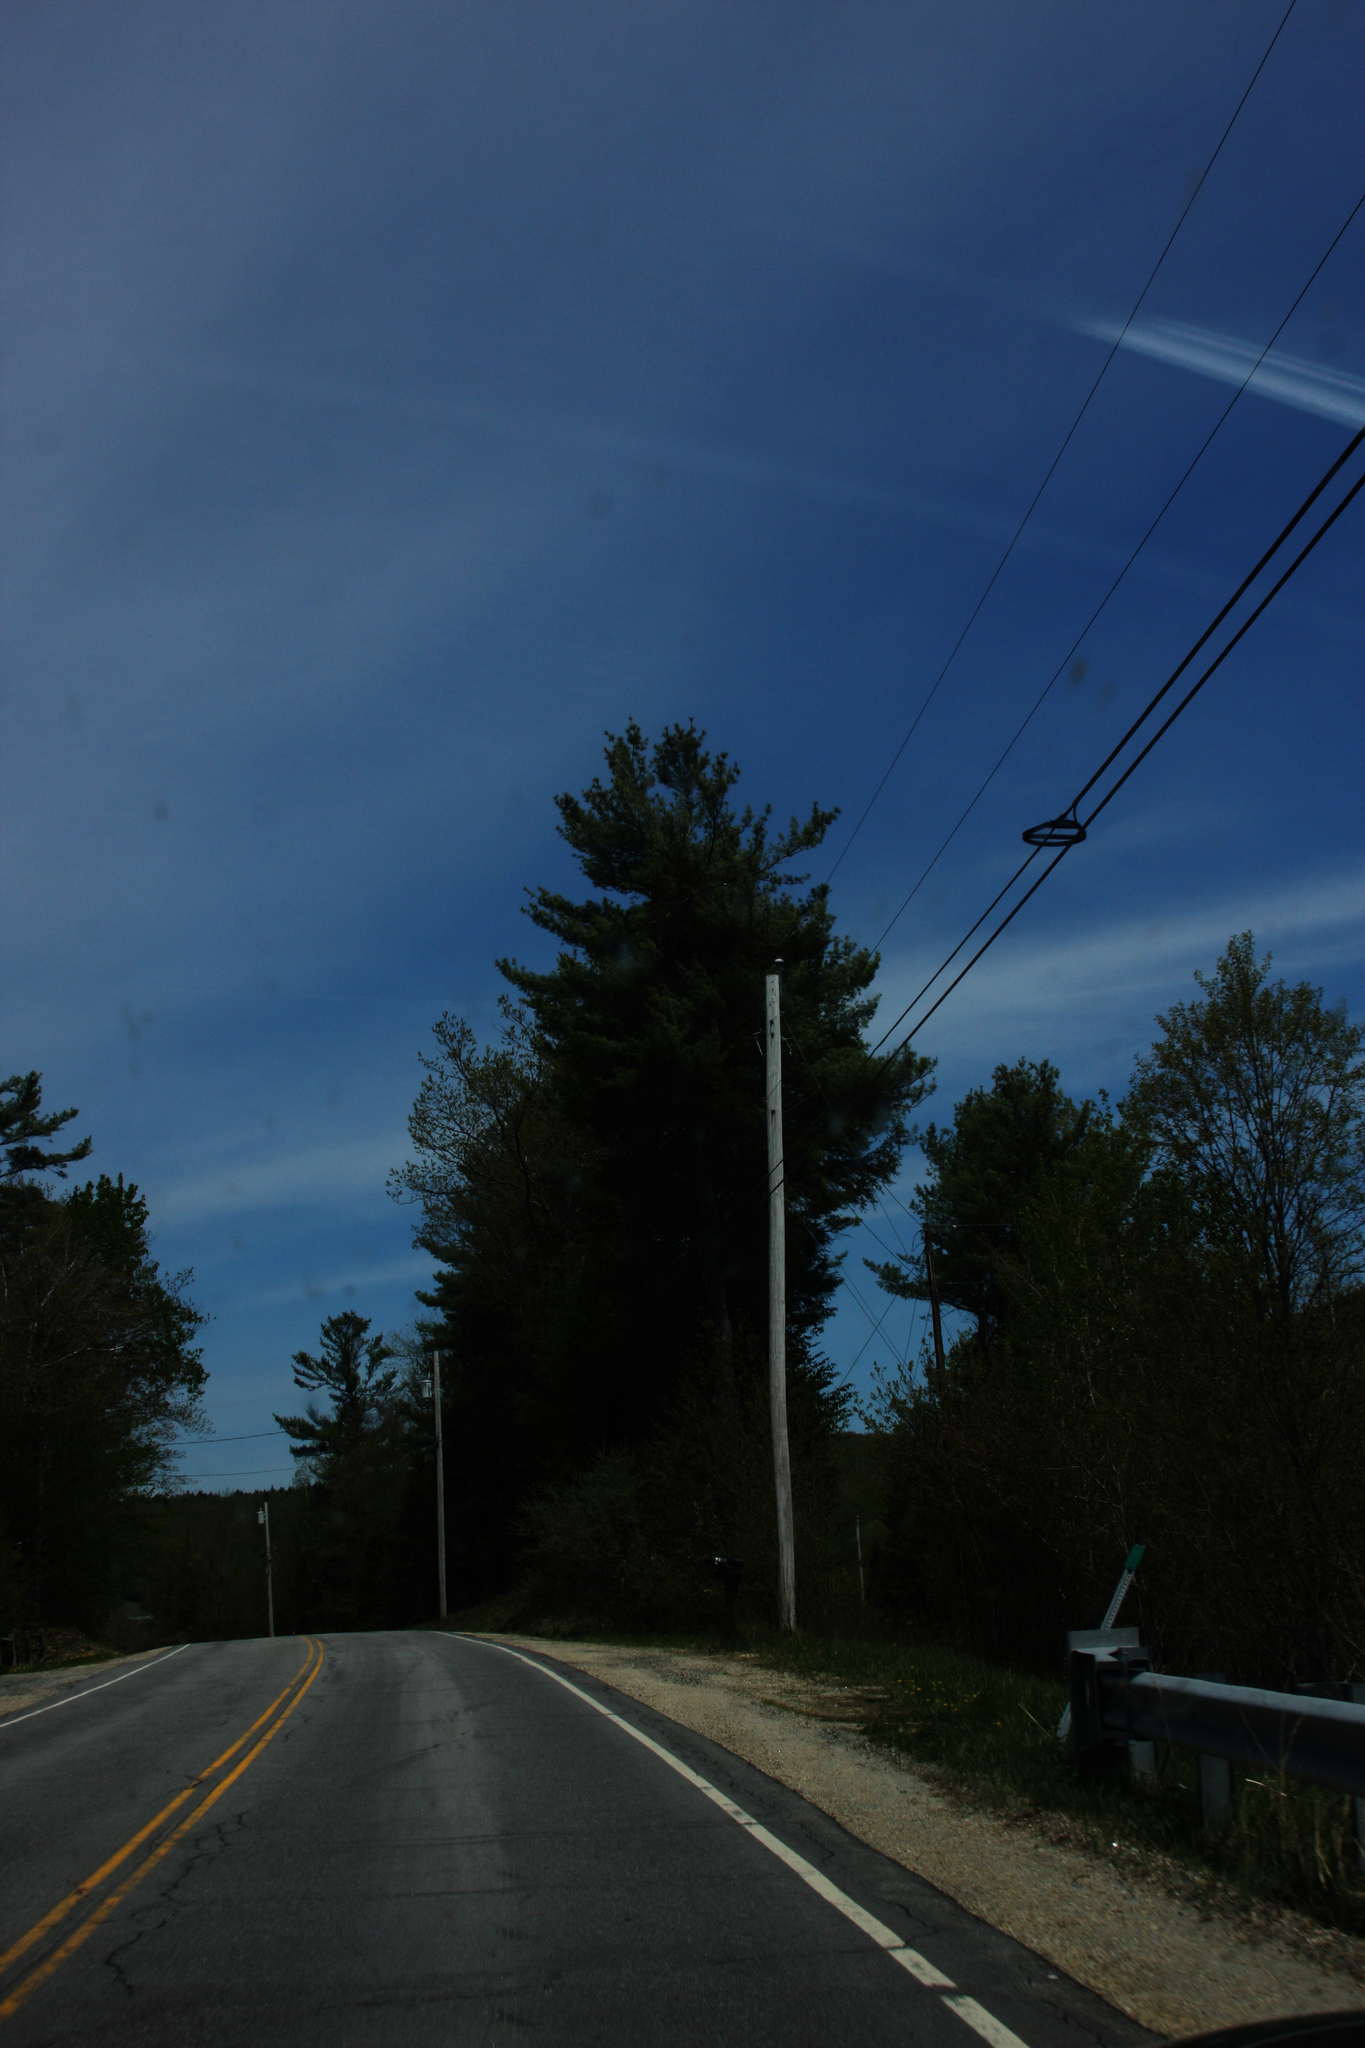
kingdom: Plantae
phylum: Tracheophyta
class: Pinopsida
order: Pinales
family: Pinaceae
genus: Pinus
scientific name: Pinus strobus
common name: Weymouth pine
